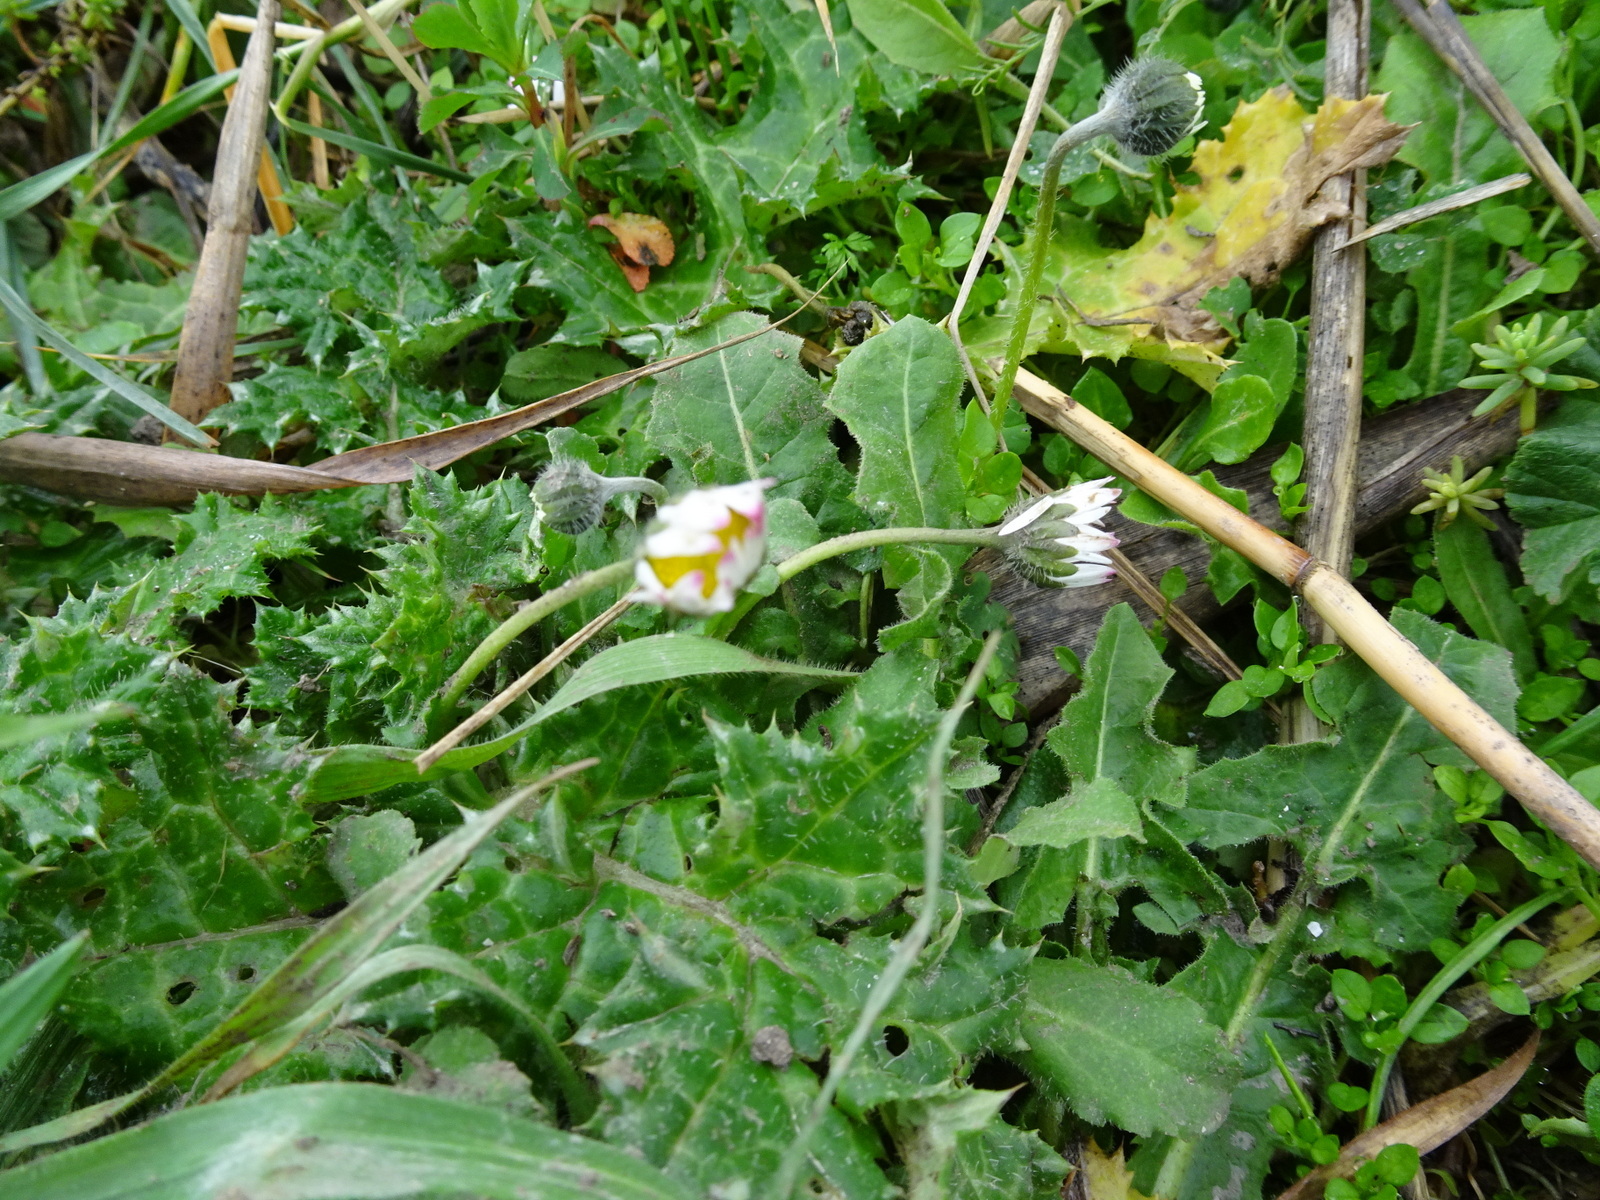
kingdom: Plantae
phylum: Tracheophyta
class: Magnoliopsida
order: Asterales
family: Asteraceae
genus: Bellis
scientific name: Bellis perennis
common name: Lawndaisy
